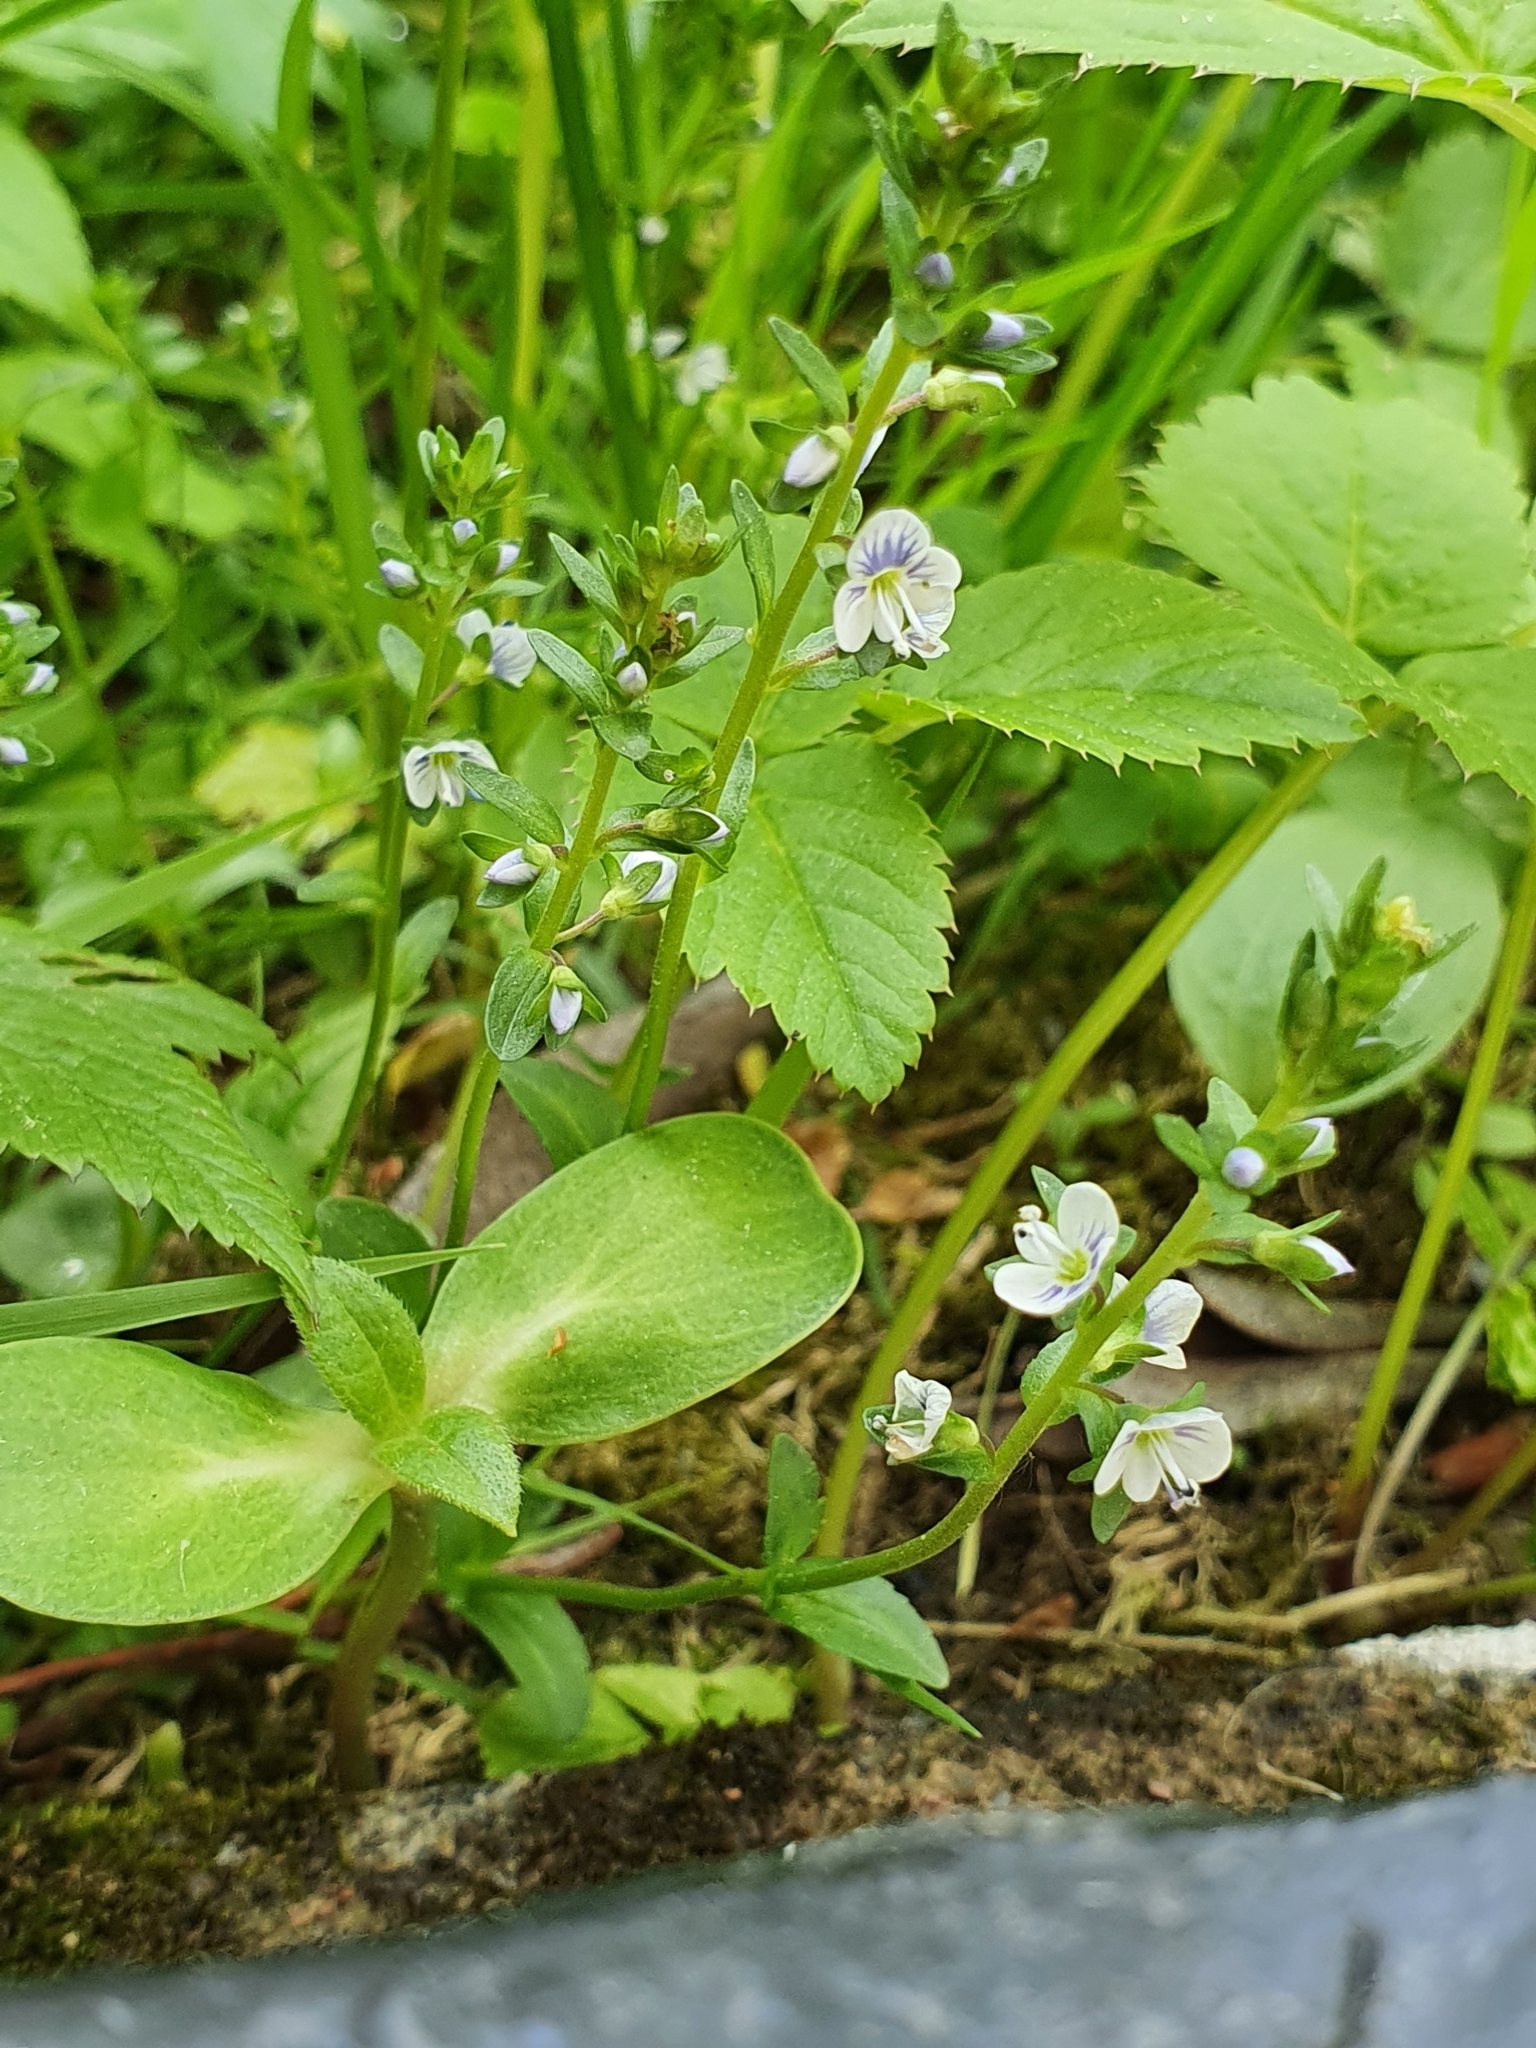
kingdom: Plantae
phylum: Tracheophyta
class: Magnoliopsida
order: Lamiales
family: Plantaginaceae
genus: Veronica
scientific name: Veronica serpyllifolia
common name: Thyme-leaved speedwell
